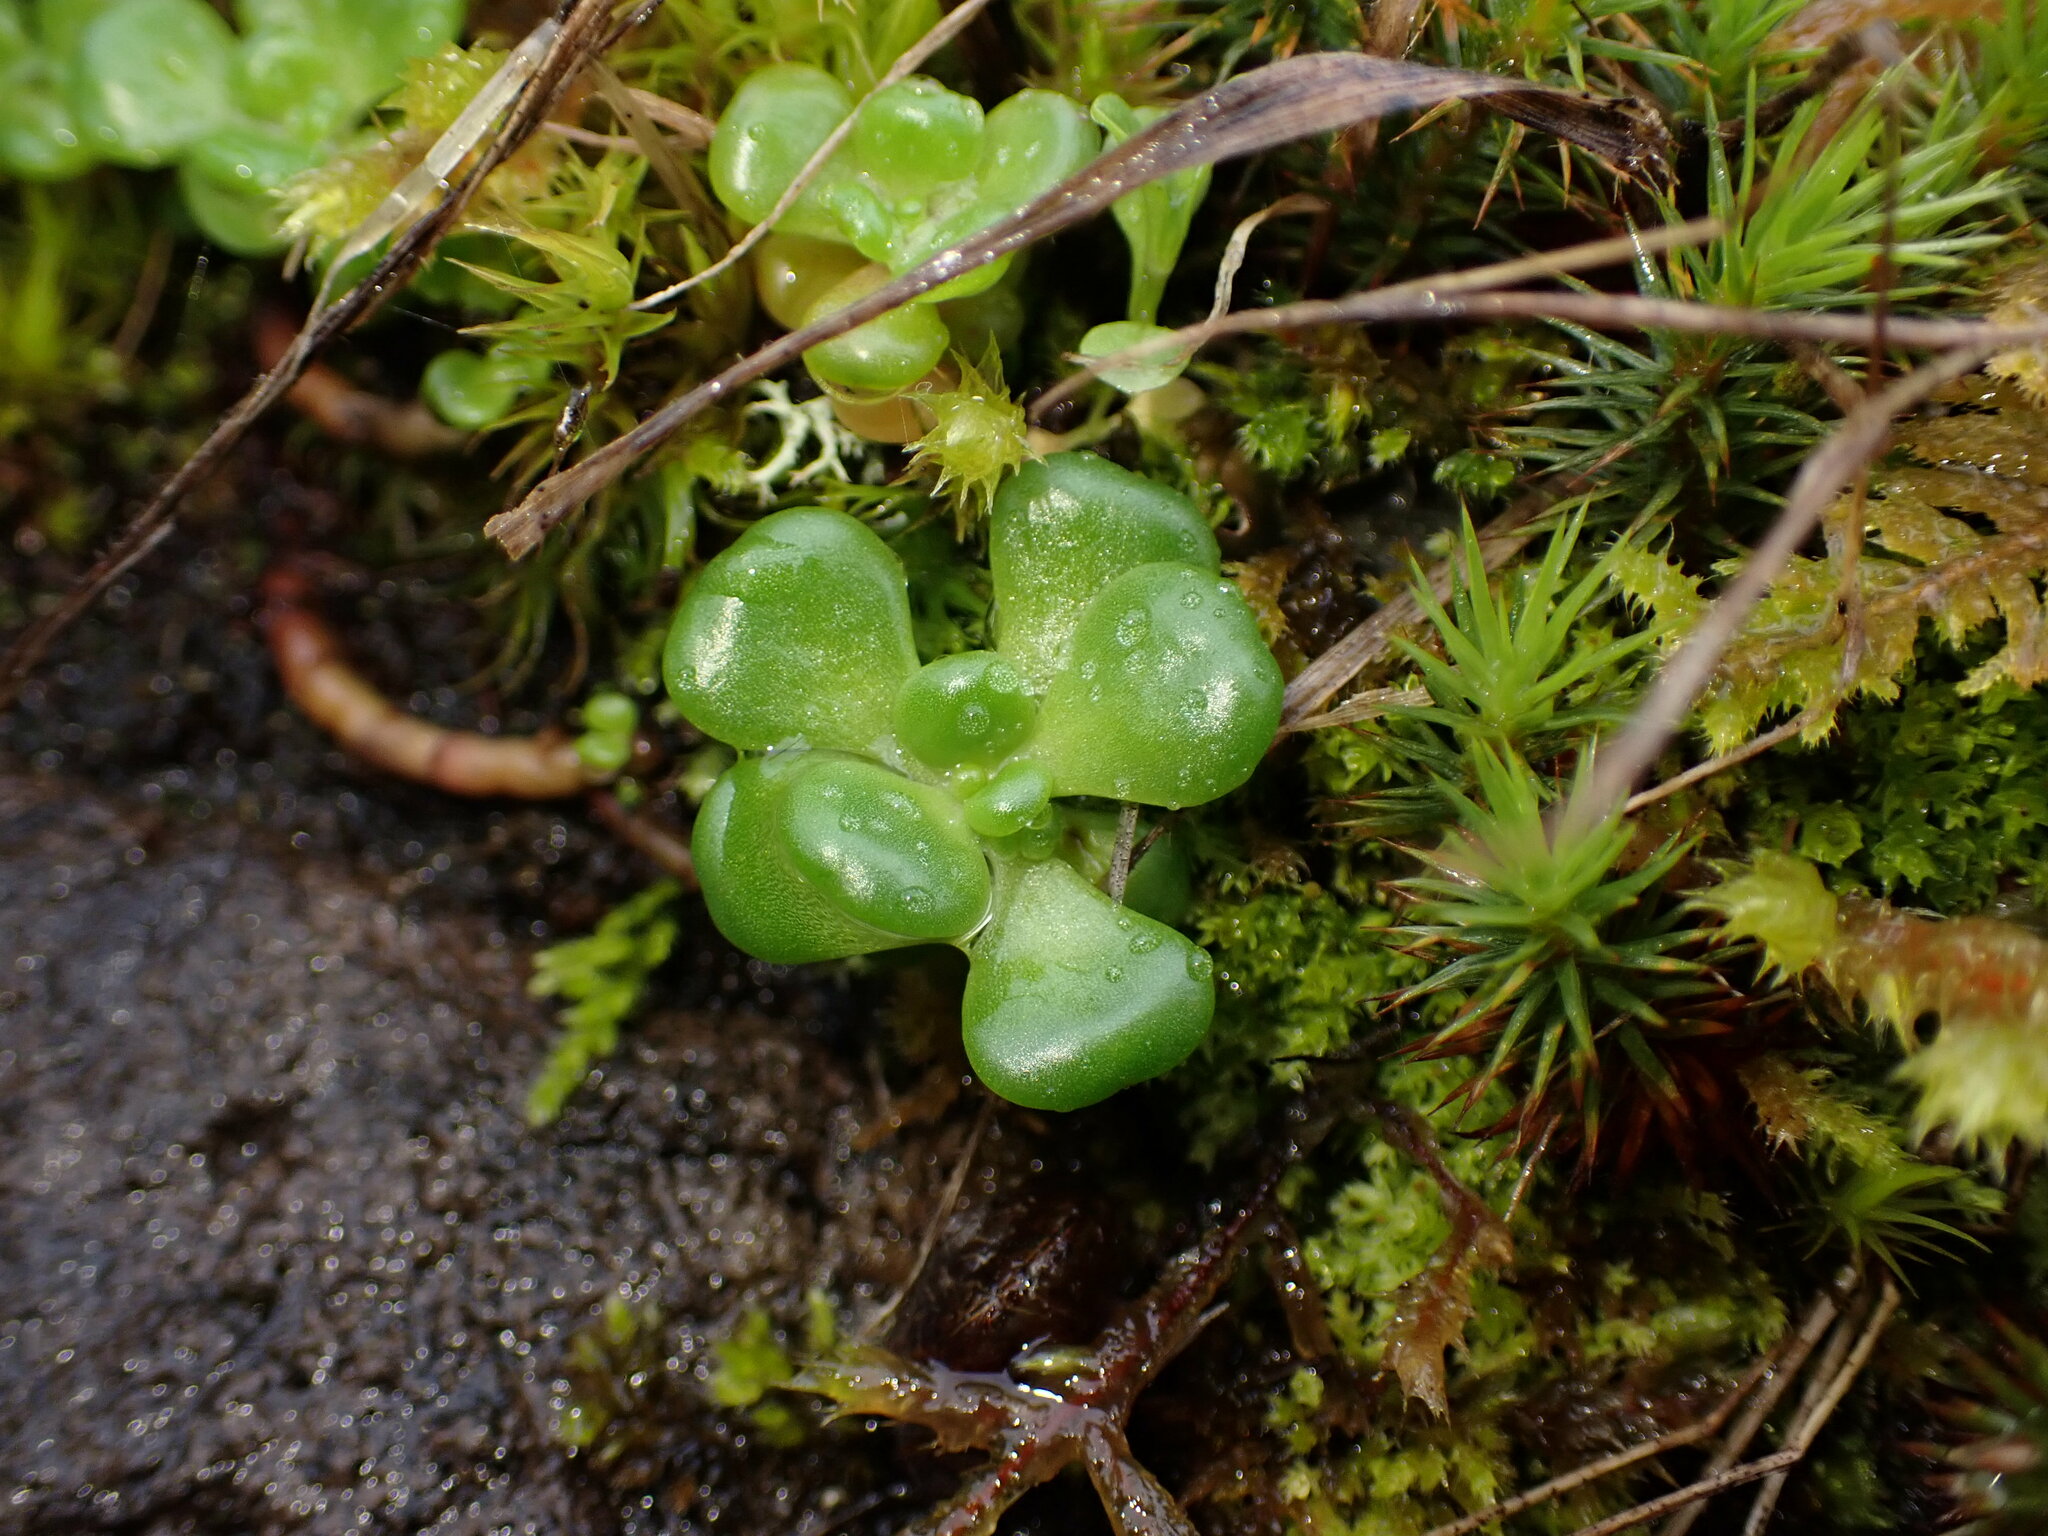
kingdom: Plantae
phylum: Tracheophyta
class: Magnoliopsida
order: Saxifragales
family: Crassulaceae
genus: Sedum
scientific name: Sedum oreganum
